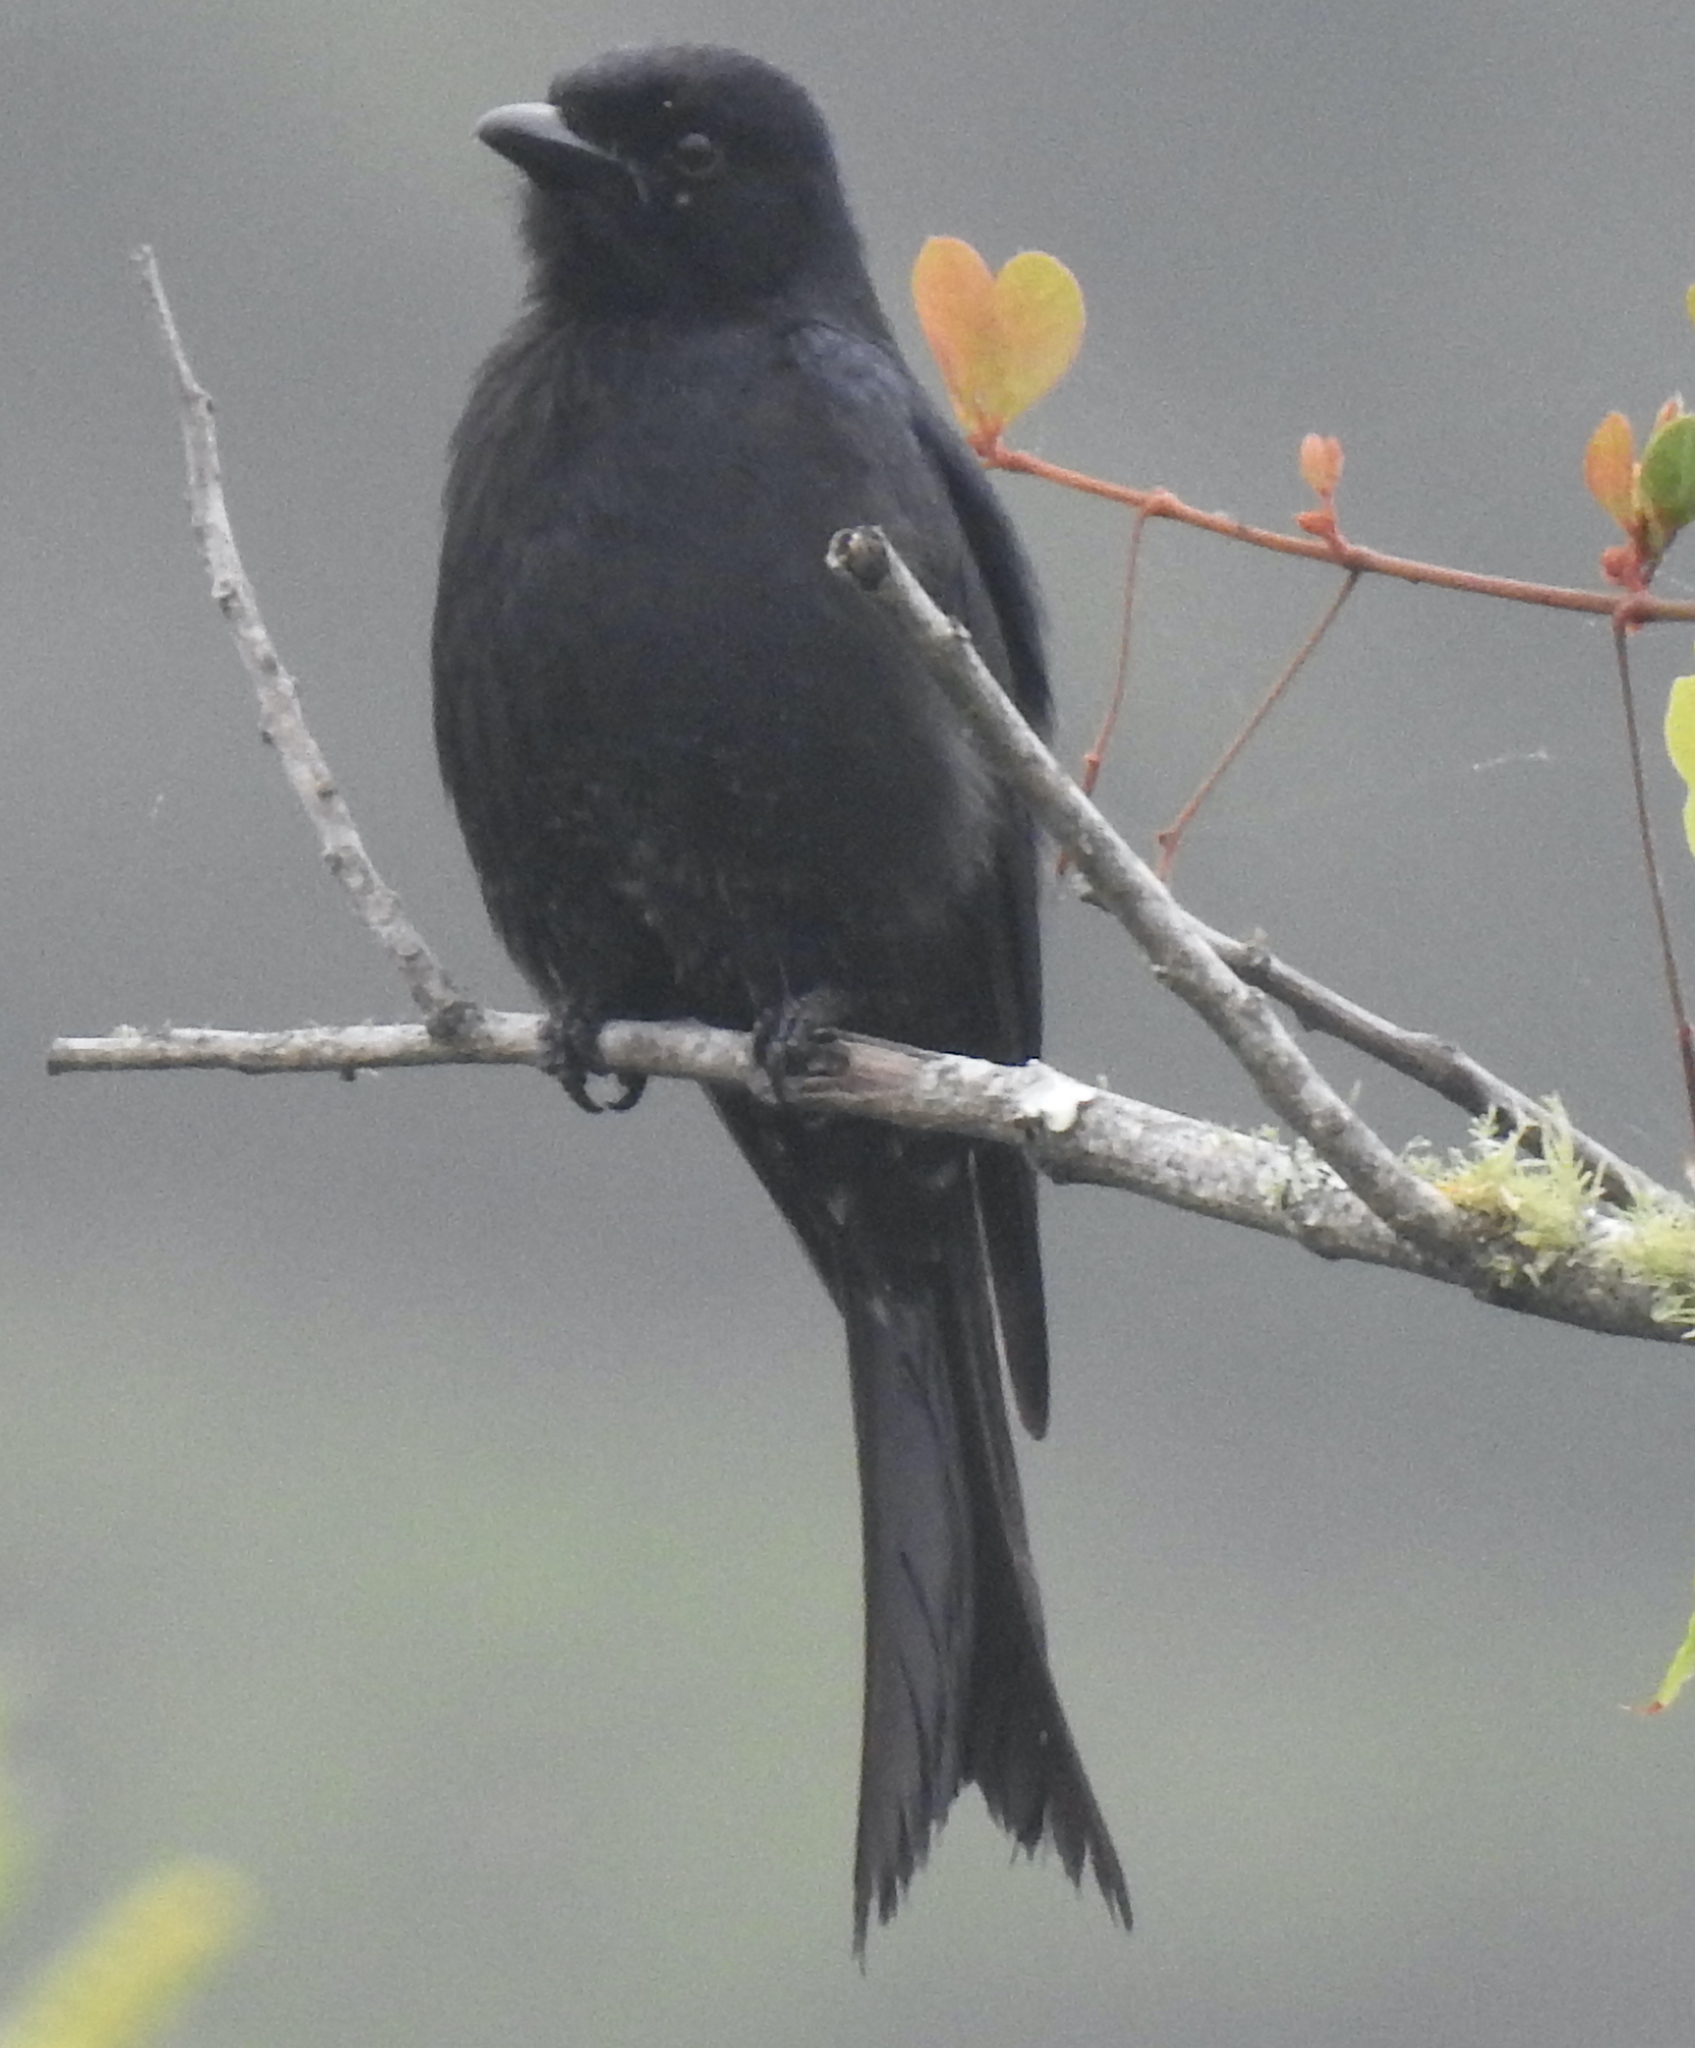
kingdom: Animalia
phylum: Chordata
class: Aves
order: Passeriformes
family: Dicruridae
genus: Dicrurus
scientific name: Dicrurus adsimilis
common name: Fork-tailed drongo
